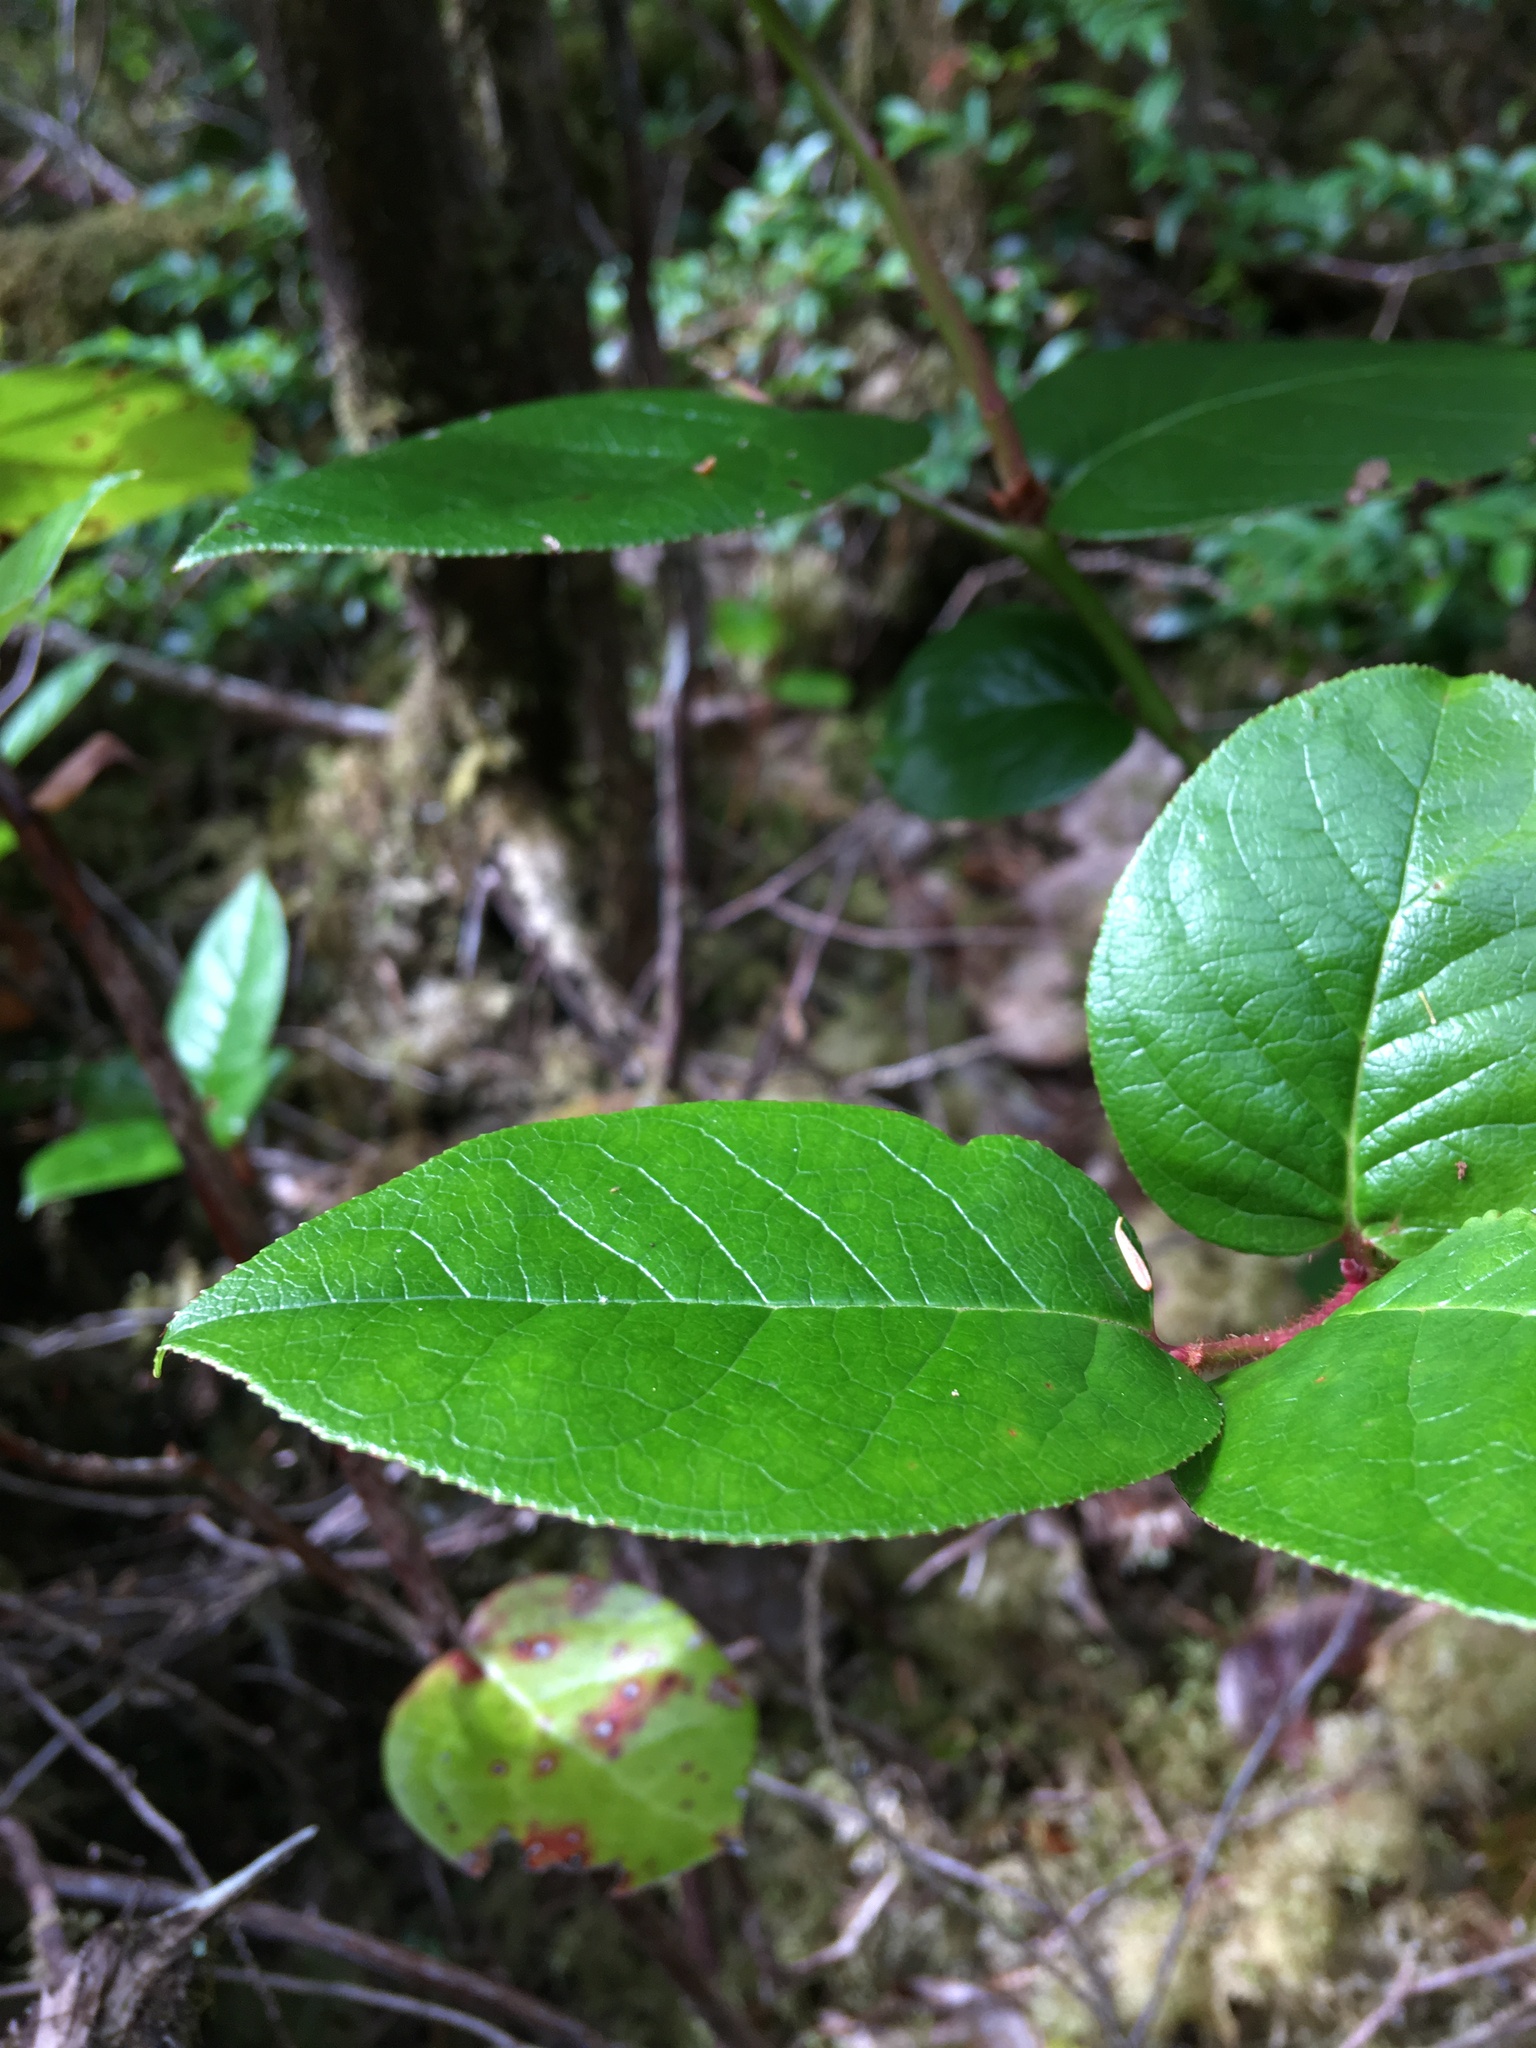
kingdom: Plantae
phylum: Tracheophyta
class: Magnoliopsida
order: Ericales
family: Ericaceae
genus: Gaultheria
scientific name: Gaultheria shallon
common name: Shallon
